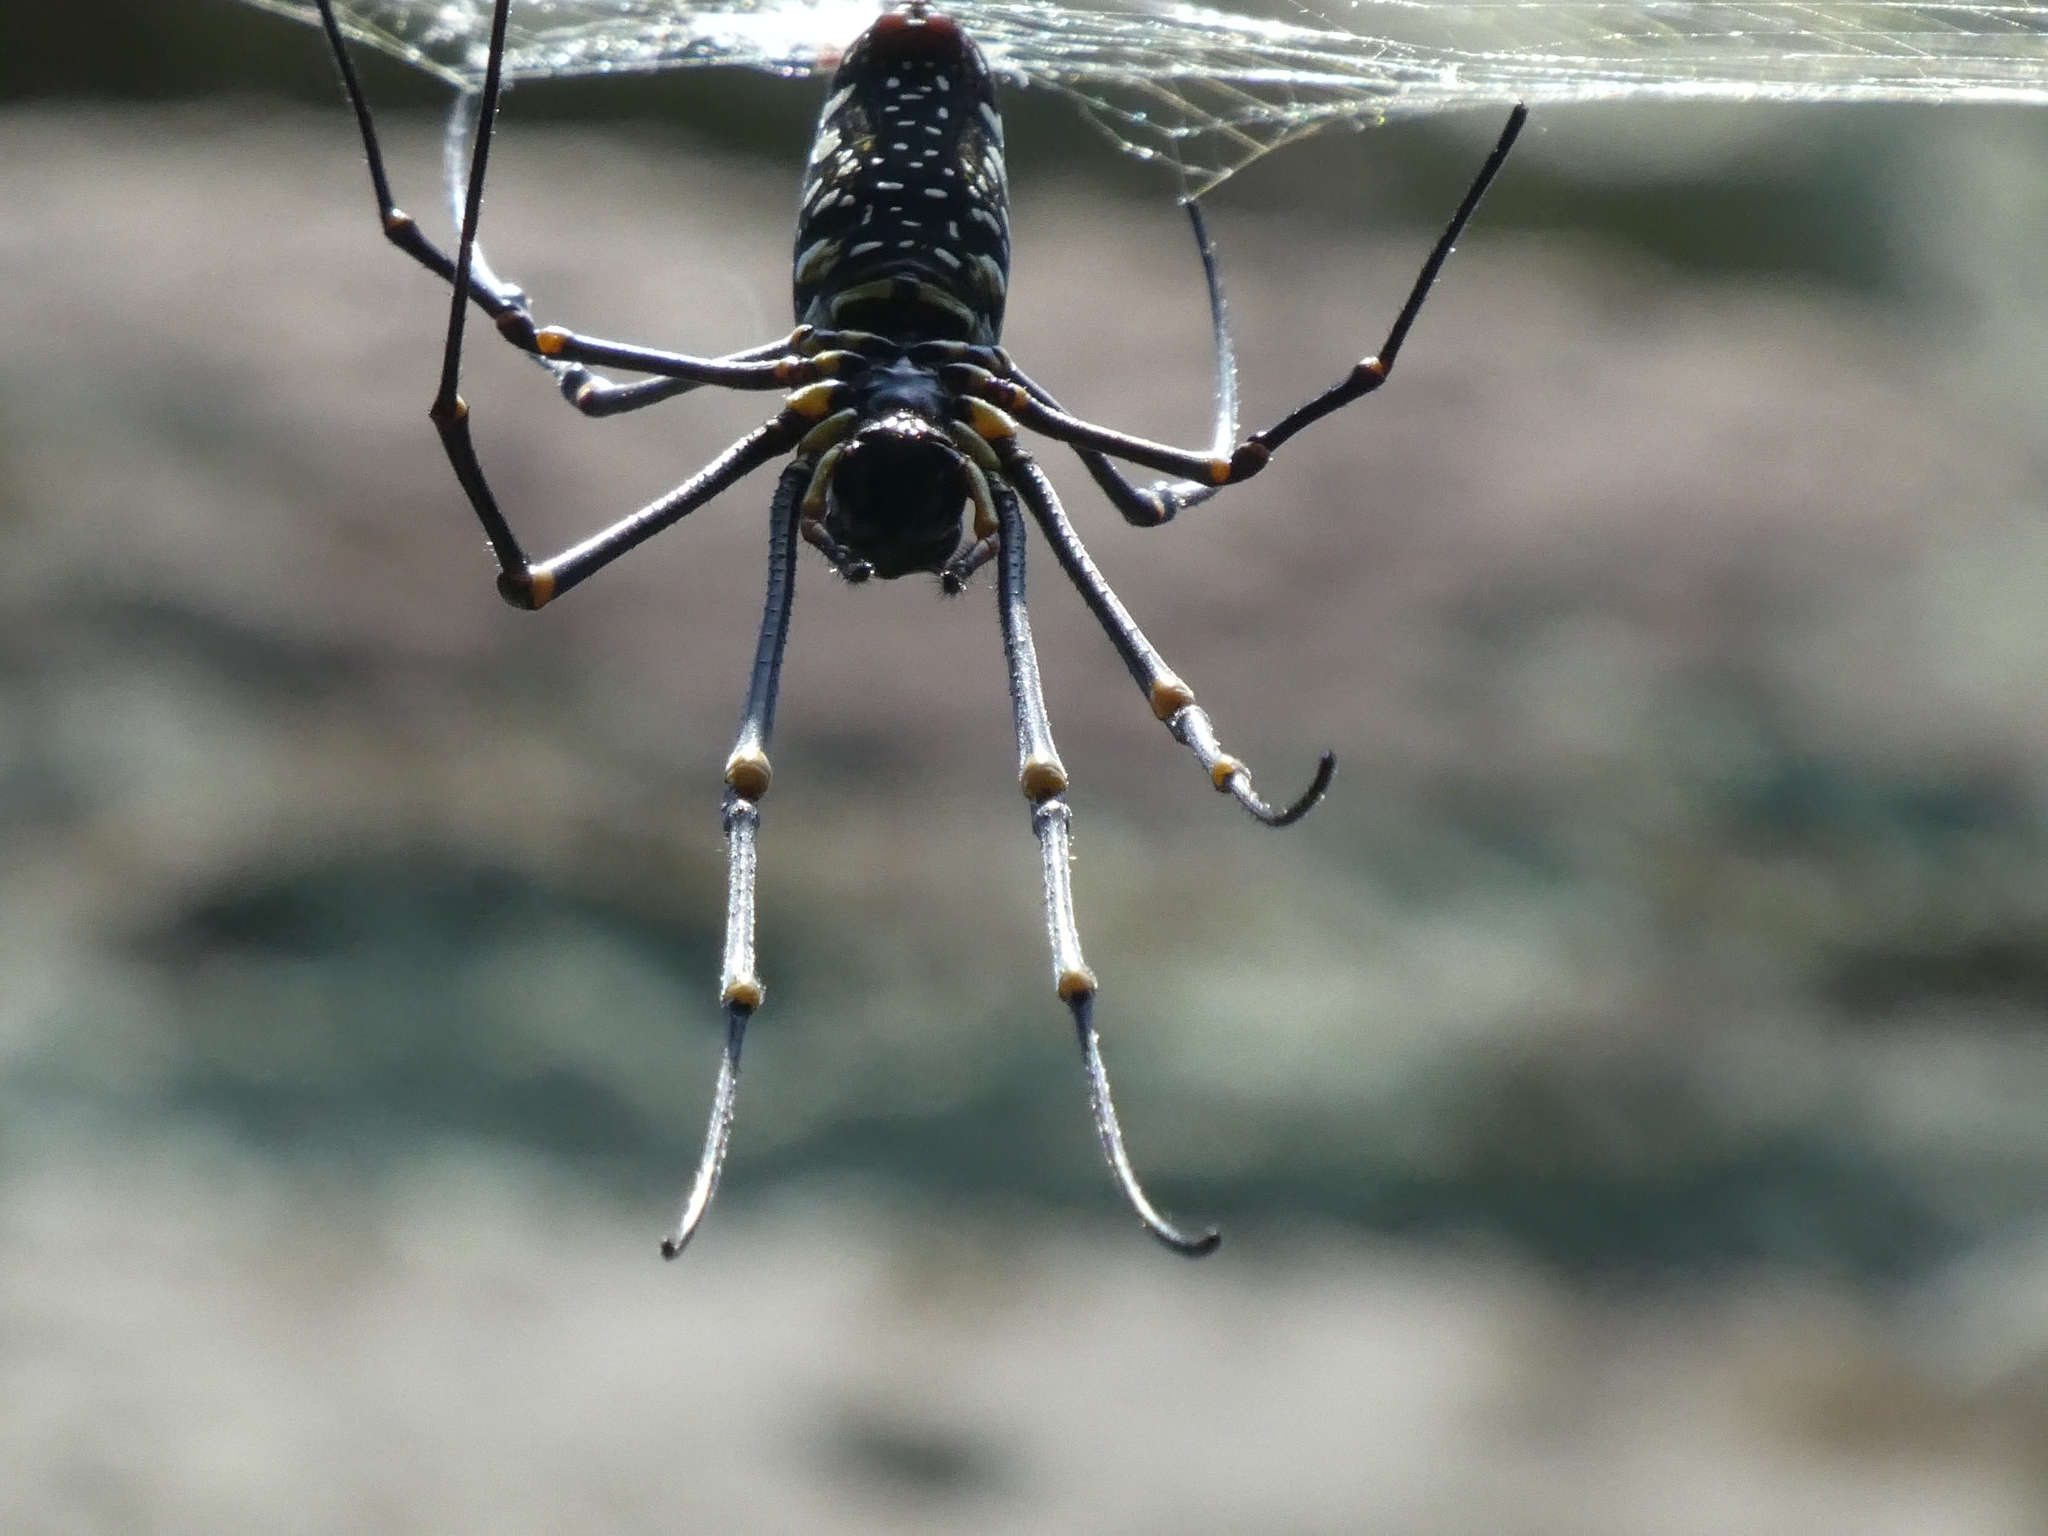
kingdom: Animalia
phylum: Arthropoda
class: Arachnida
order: Araneae
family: Araneidae
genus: Nephila
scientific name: Nephila pilipes
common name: Giant golden orb weaver
